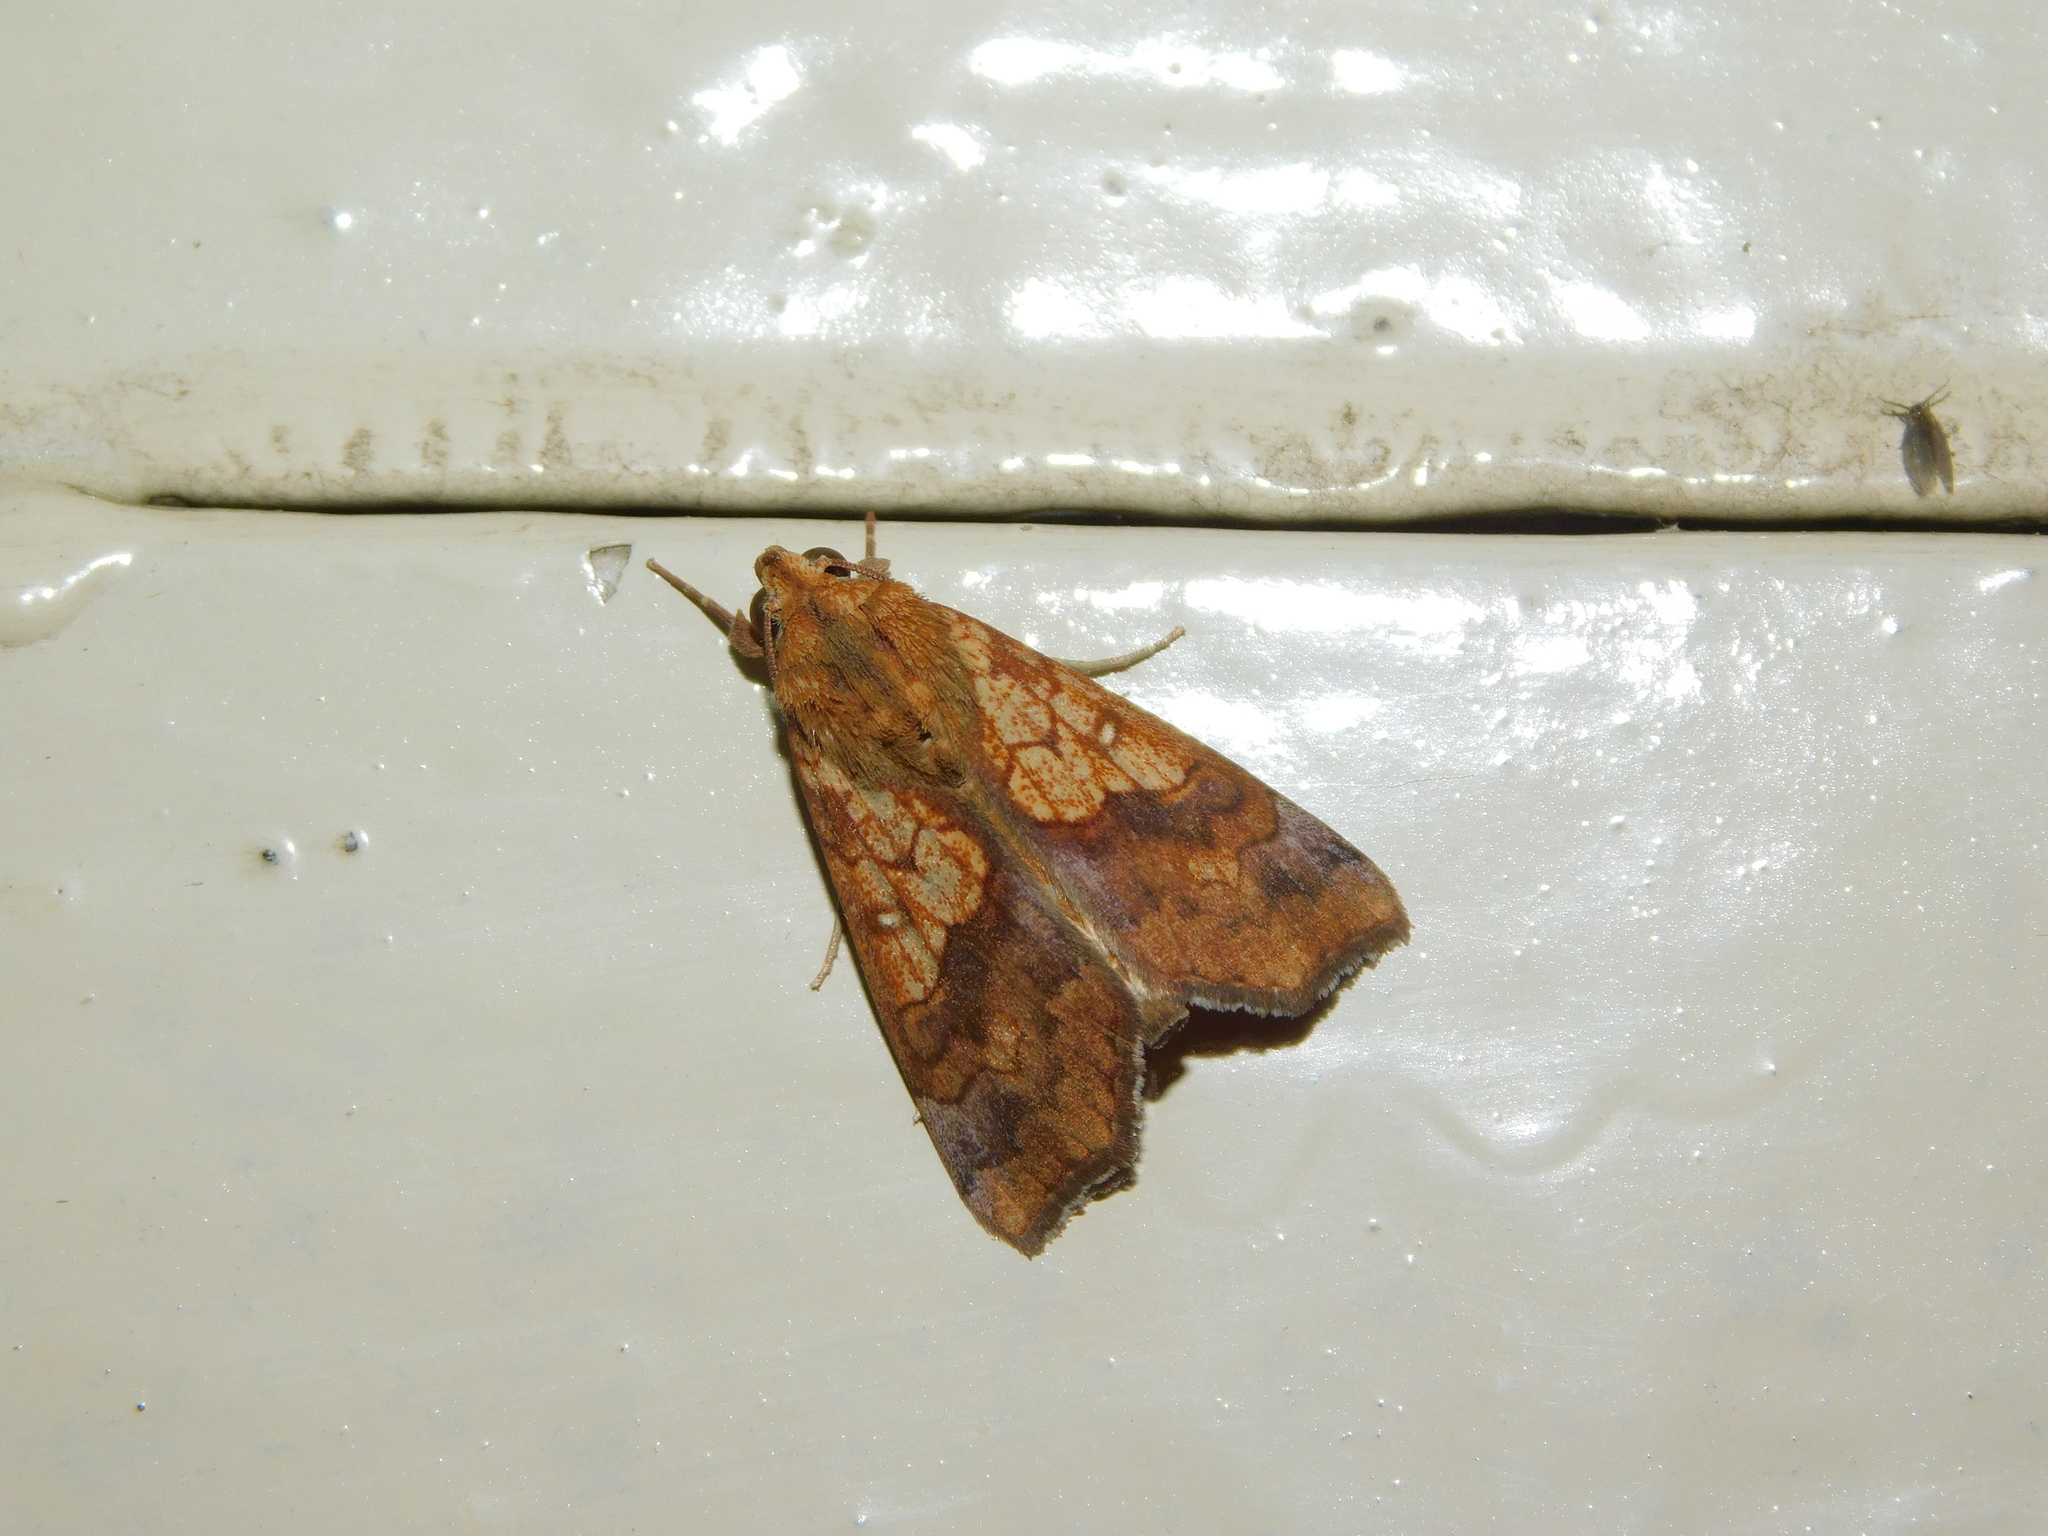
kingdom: Animalia
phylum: Arthropoda
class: Insecta
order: Lepidoptera
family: Erebidae
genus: Anomis
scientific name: Anomis flava
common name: Moth
